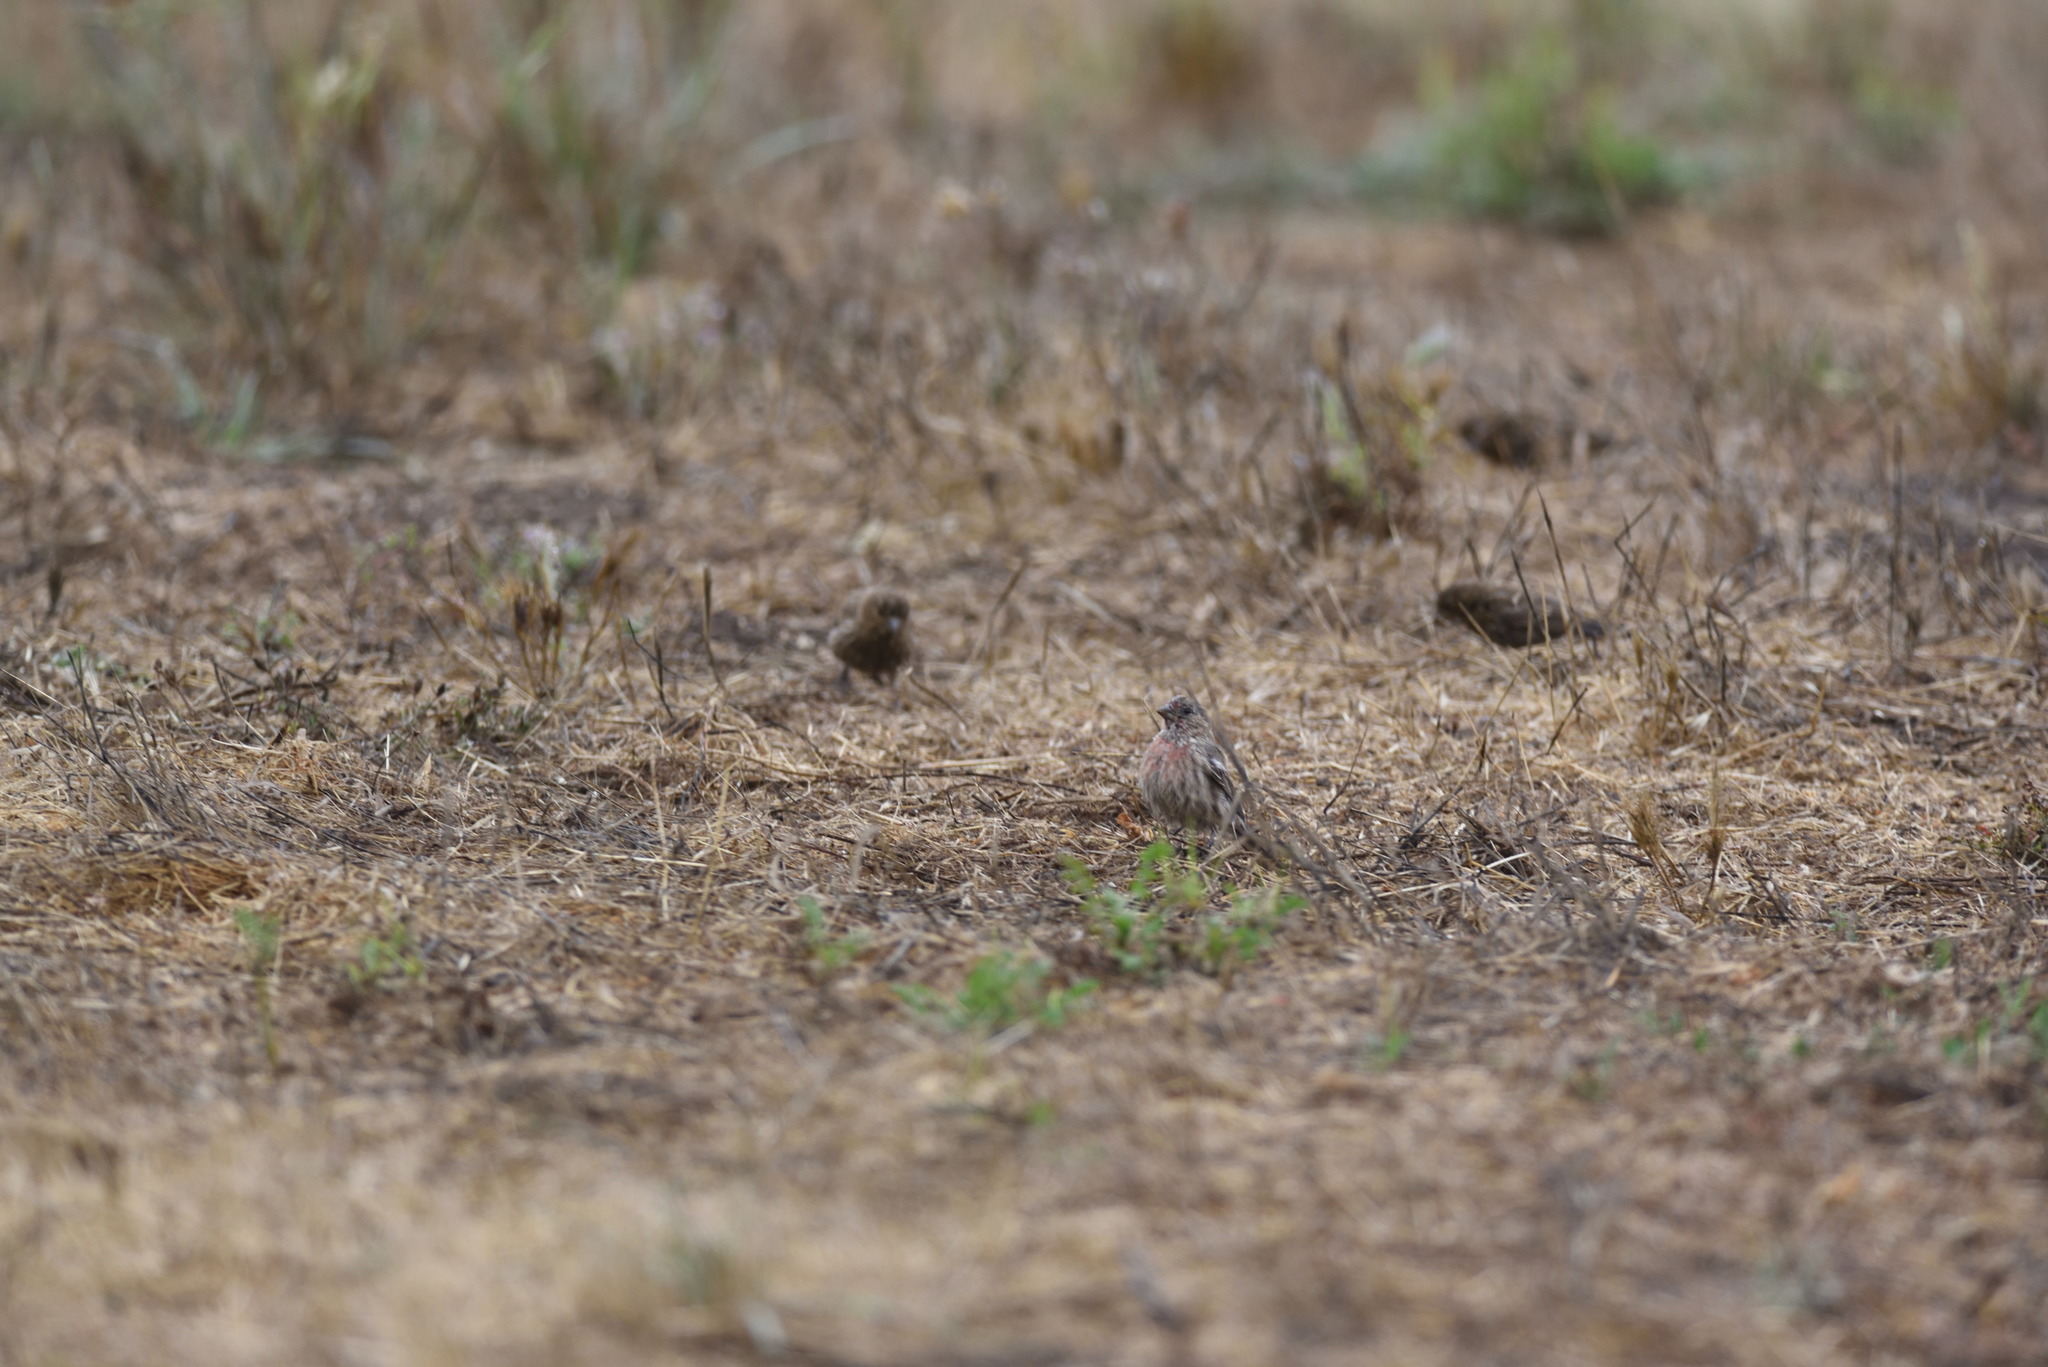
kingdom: Animalia
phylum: Chordata
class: Aves
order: Passeriformes
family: Fringillidae
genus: Haemorhous
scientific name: Haemorhous mexicanus
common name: House finch
